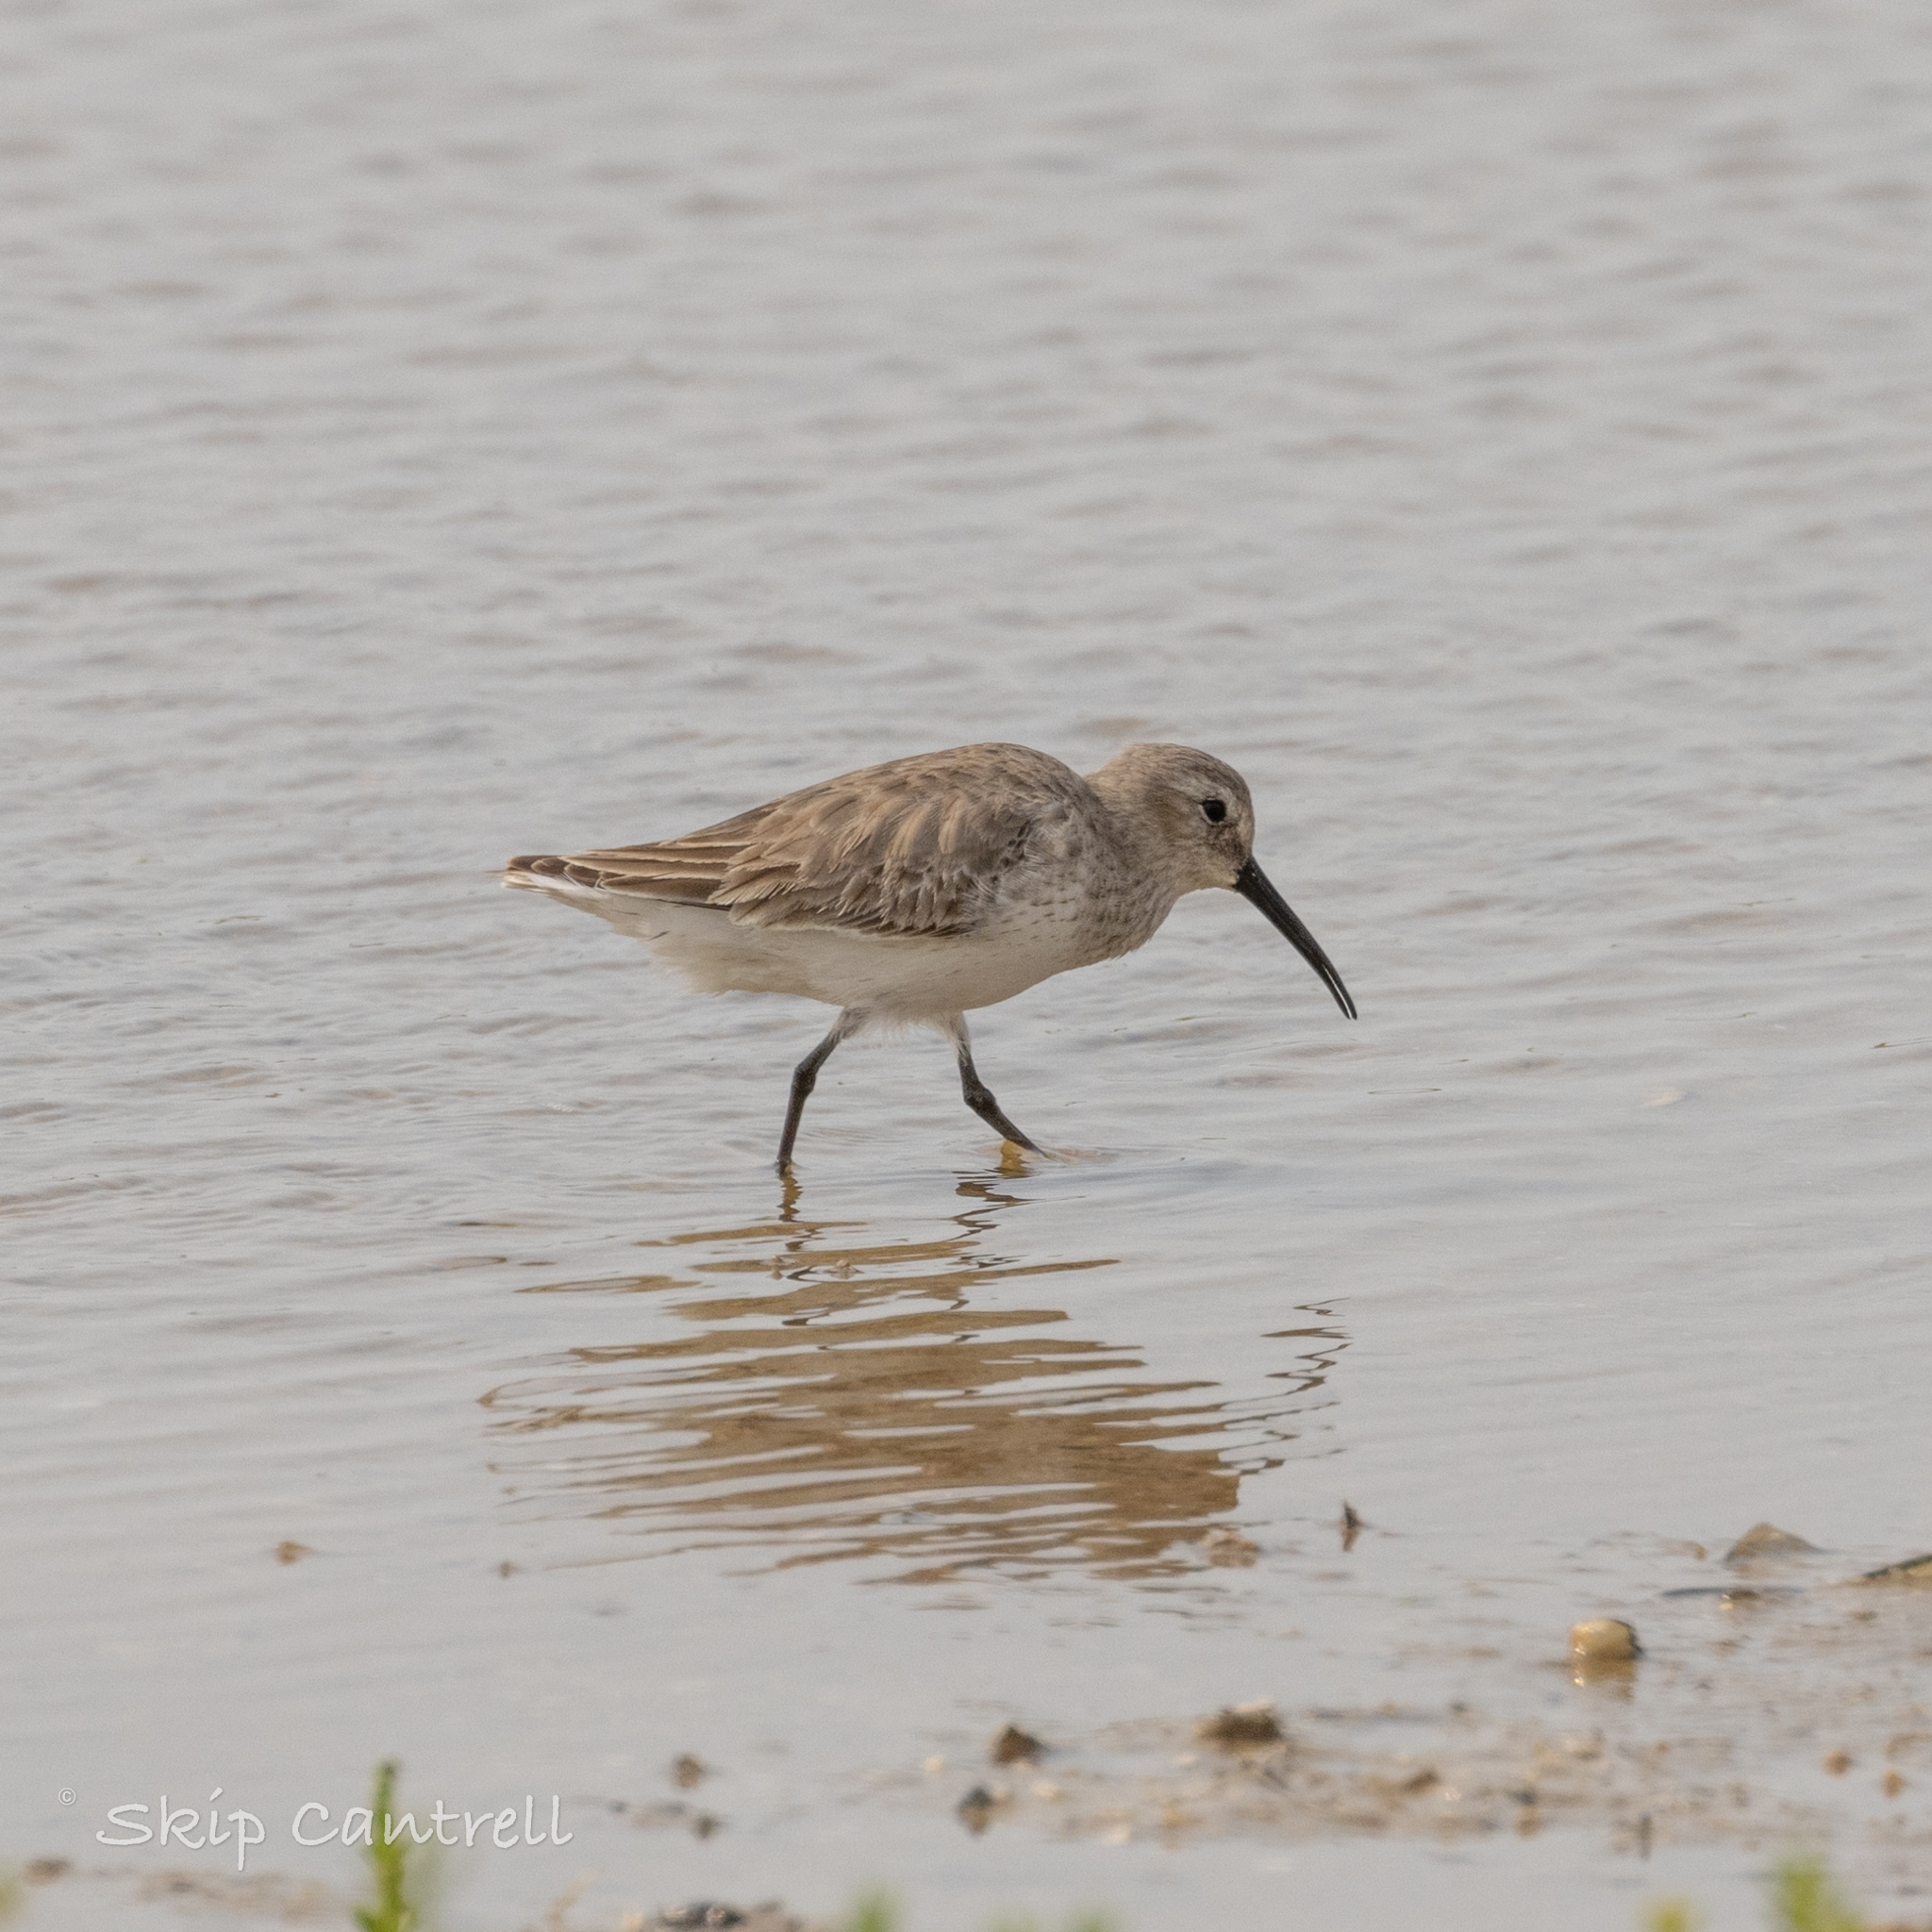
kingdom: Animalia
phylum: Chordata
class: Aves
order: Charadriiformes
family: Scolopacidae
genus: Calidris
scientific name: Calidris alpina
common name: Dunlin
